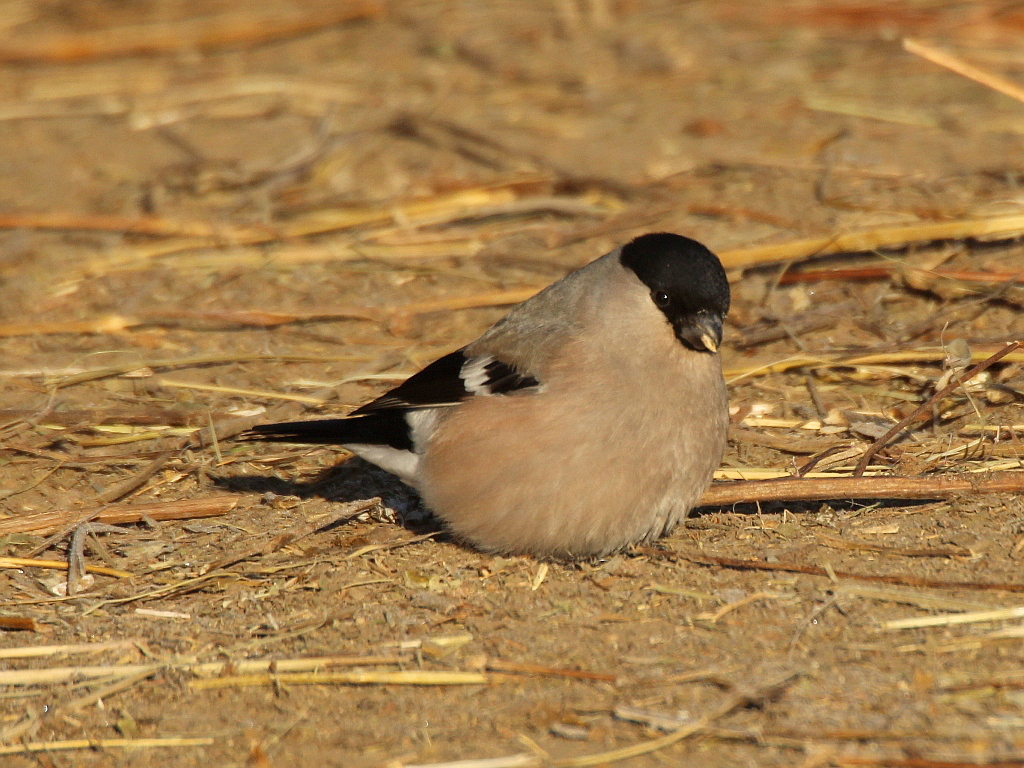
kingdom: Animalia
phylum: Chordata
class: Aves
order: Passeriformes
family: Fringillidae
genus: Pyrrhula
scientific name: Pyrrhula pyrrhula
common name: Eurasian bullfinch
